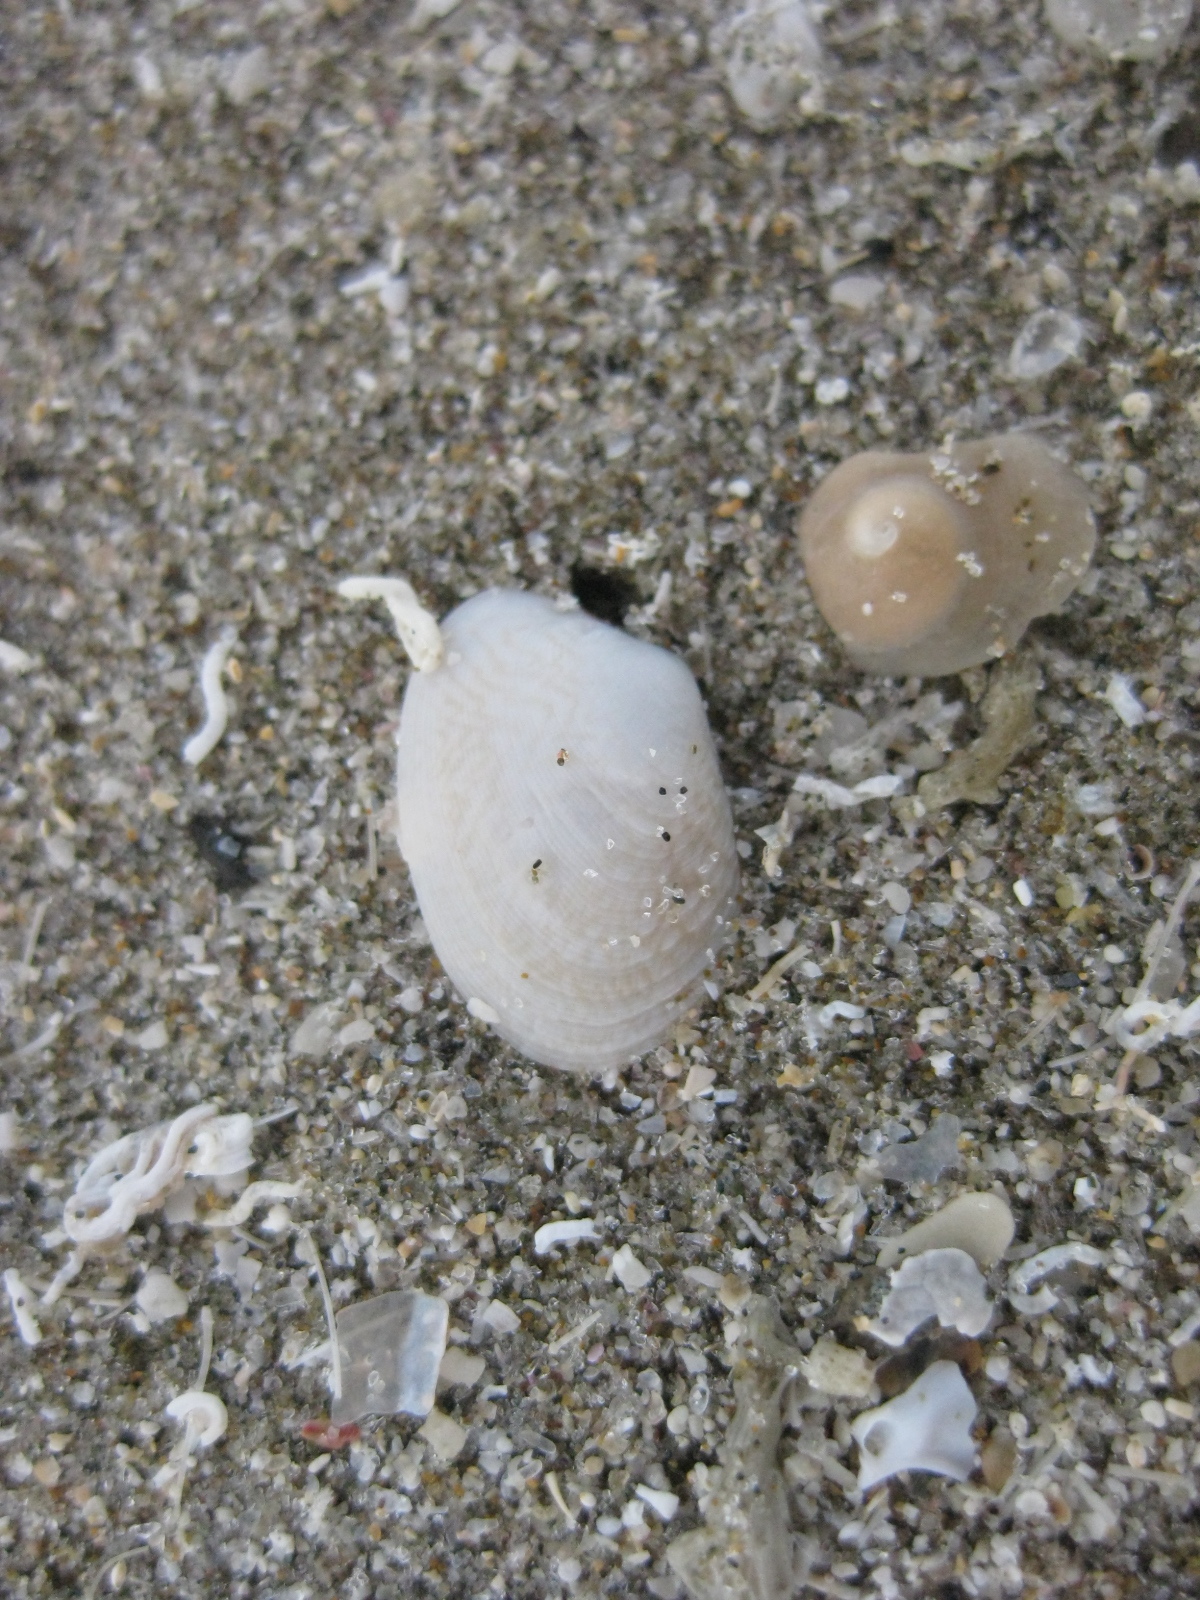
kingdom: Animalia
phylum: Mollusca
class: Bivalvia
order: Venerida
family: Veneridae
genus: Venerupis
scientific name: Venerupis largillierti
